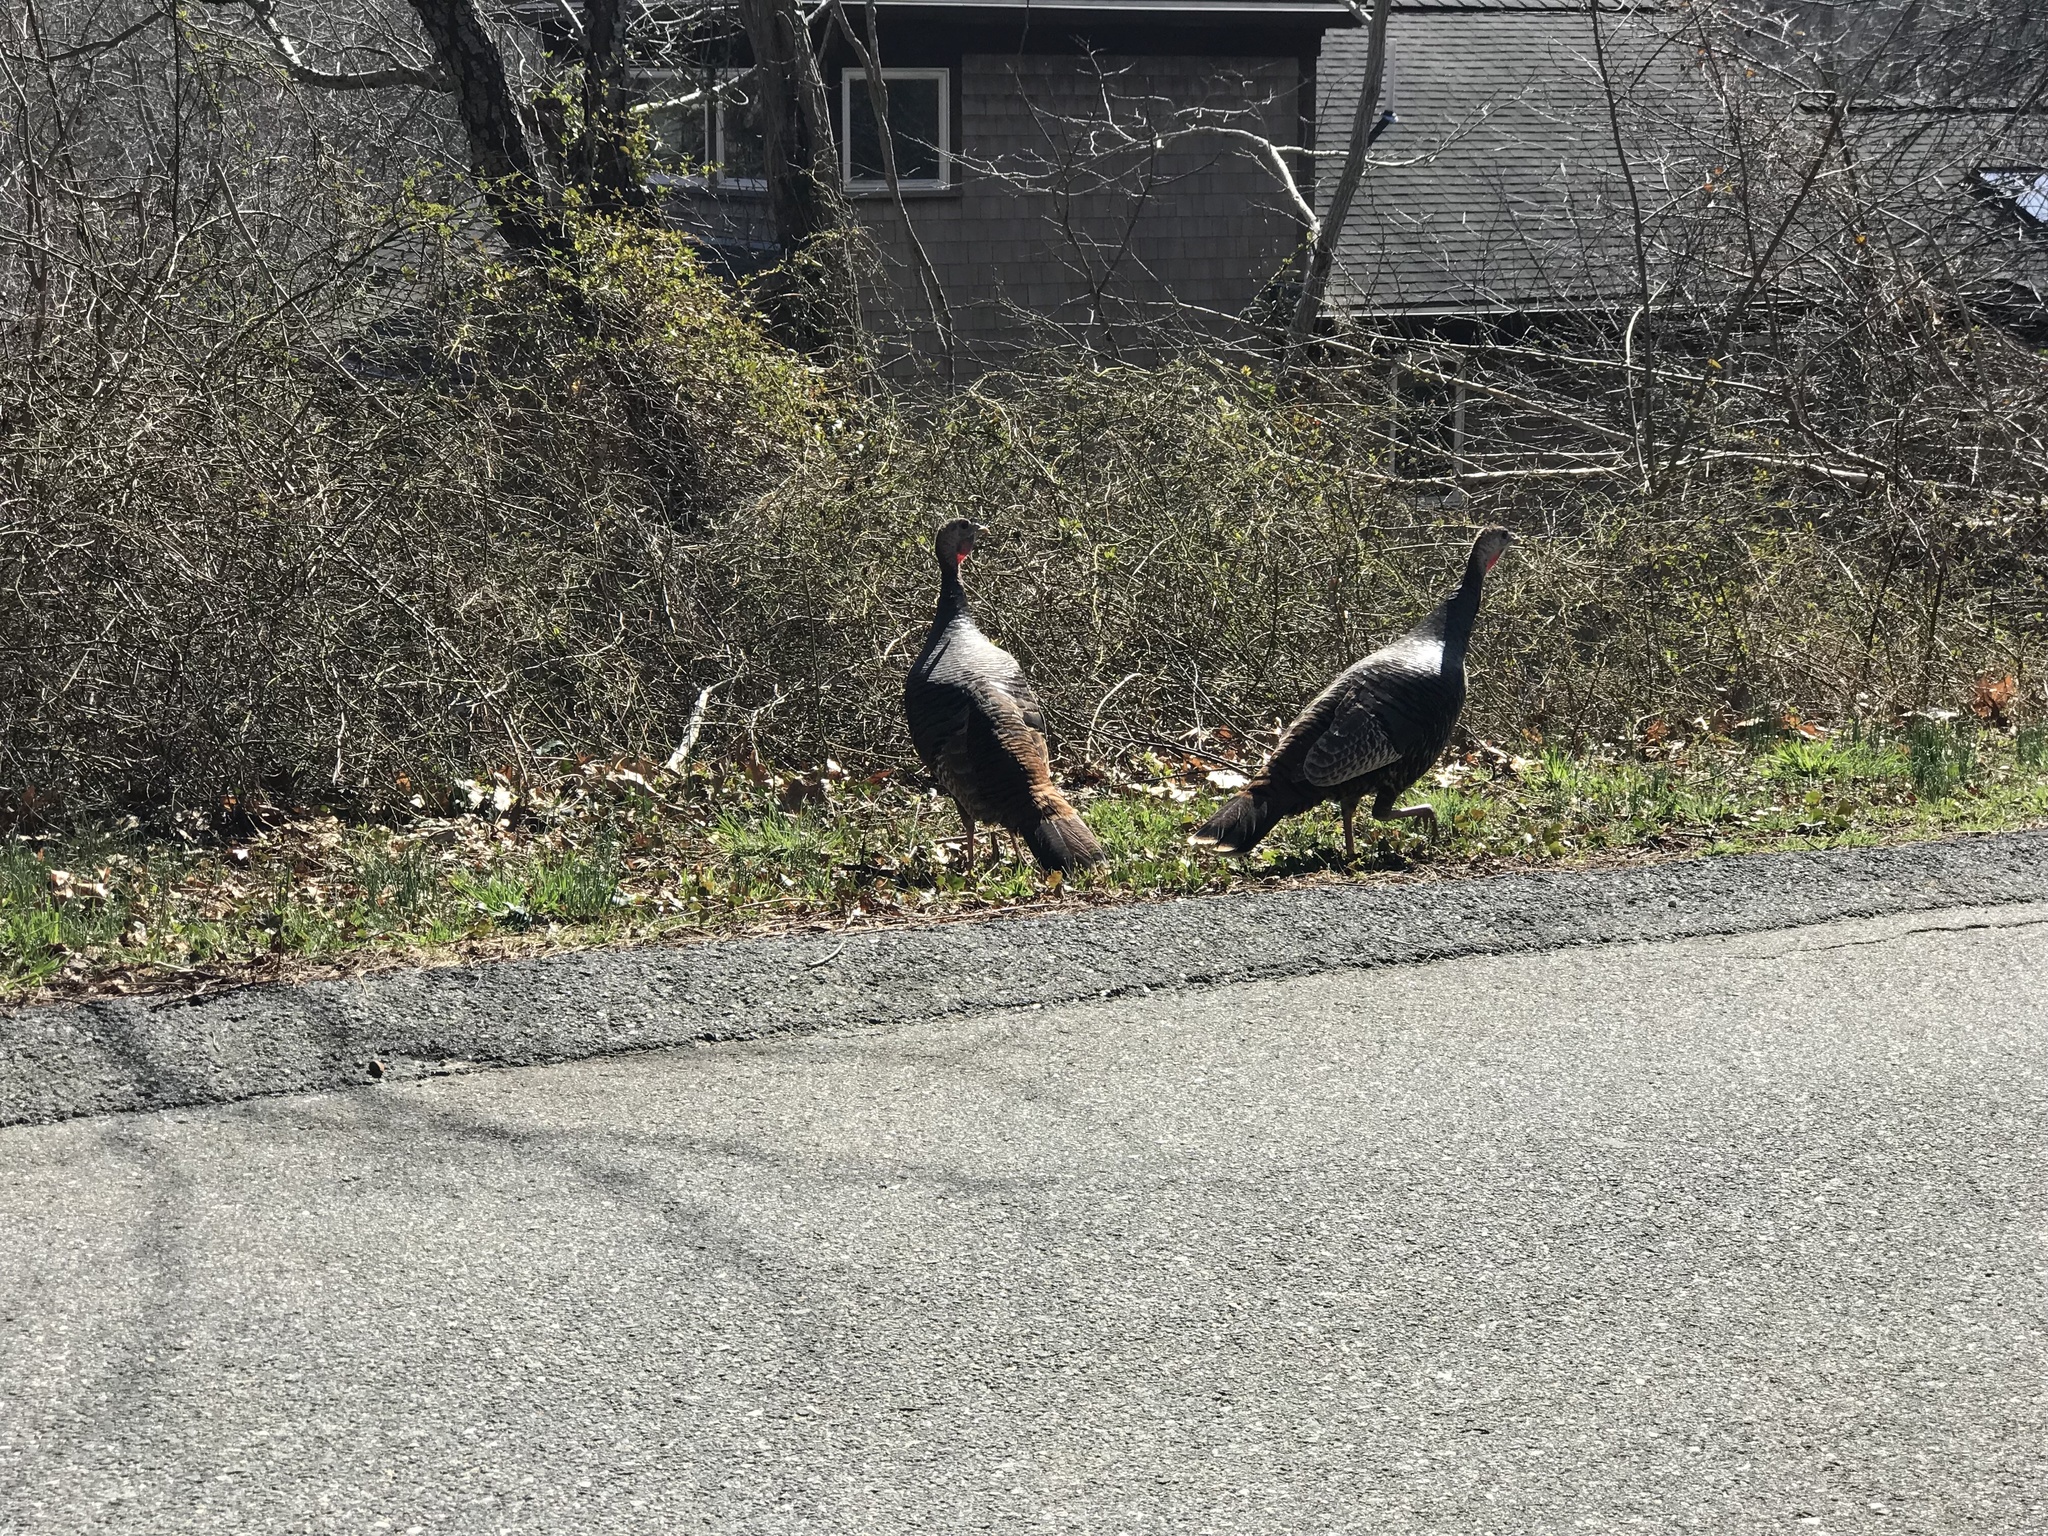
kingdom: Animalia
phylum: Chordata
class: Aves
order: Galliformes
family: Phasianidae
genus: Meleagris
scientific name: Meleagris gallopavo
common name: Wild turkey
